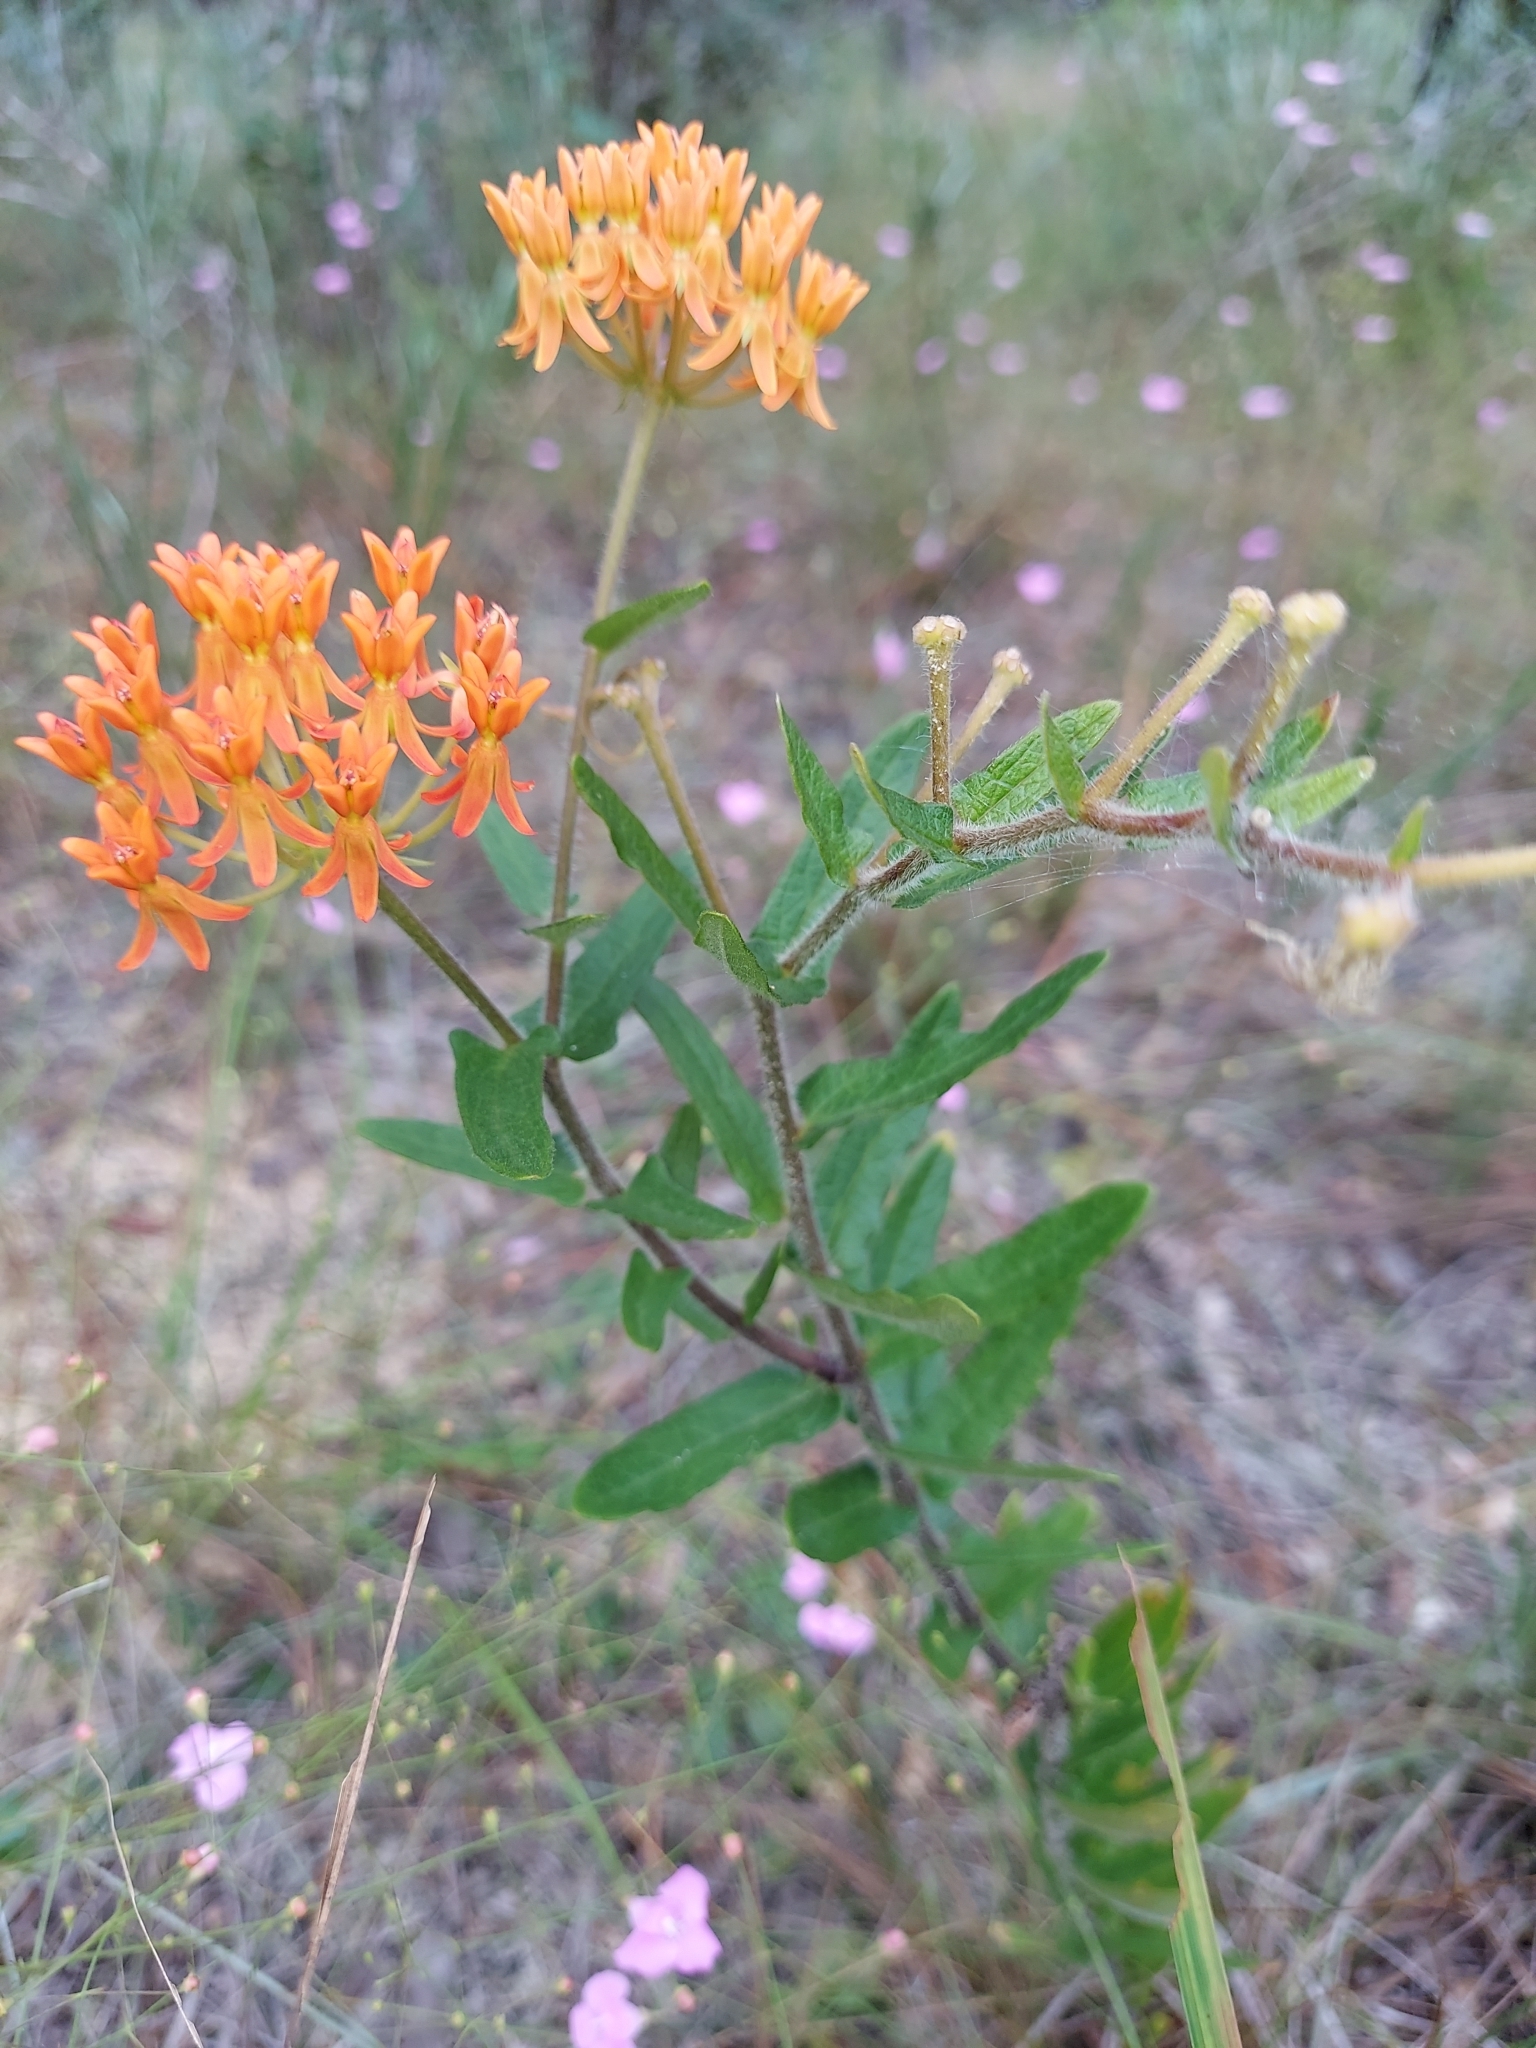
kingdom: Plantae
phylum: Tracheophyta
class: Magnoliopsida
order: Gentianales
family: Apocynaceae
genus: Asclepias
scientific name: Asclepias tuberosa
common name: Butterfly milkweed
